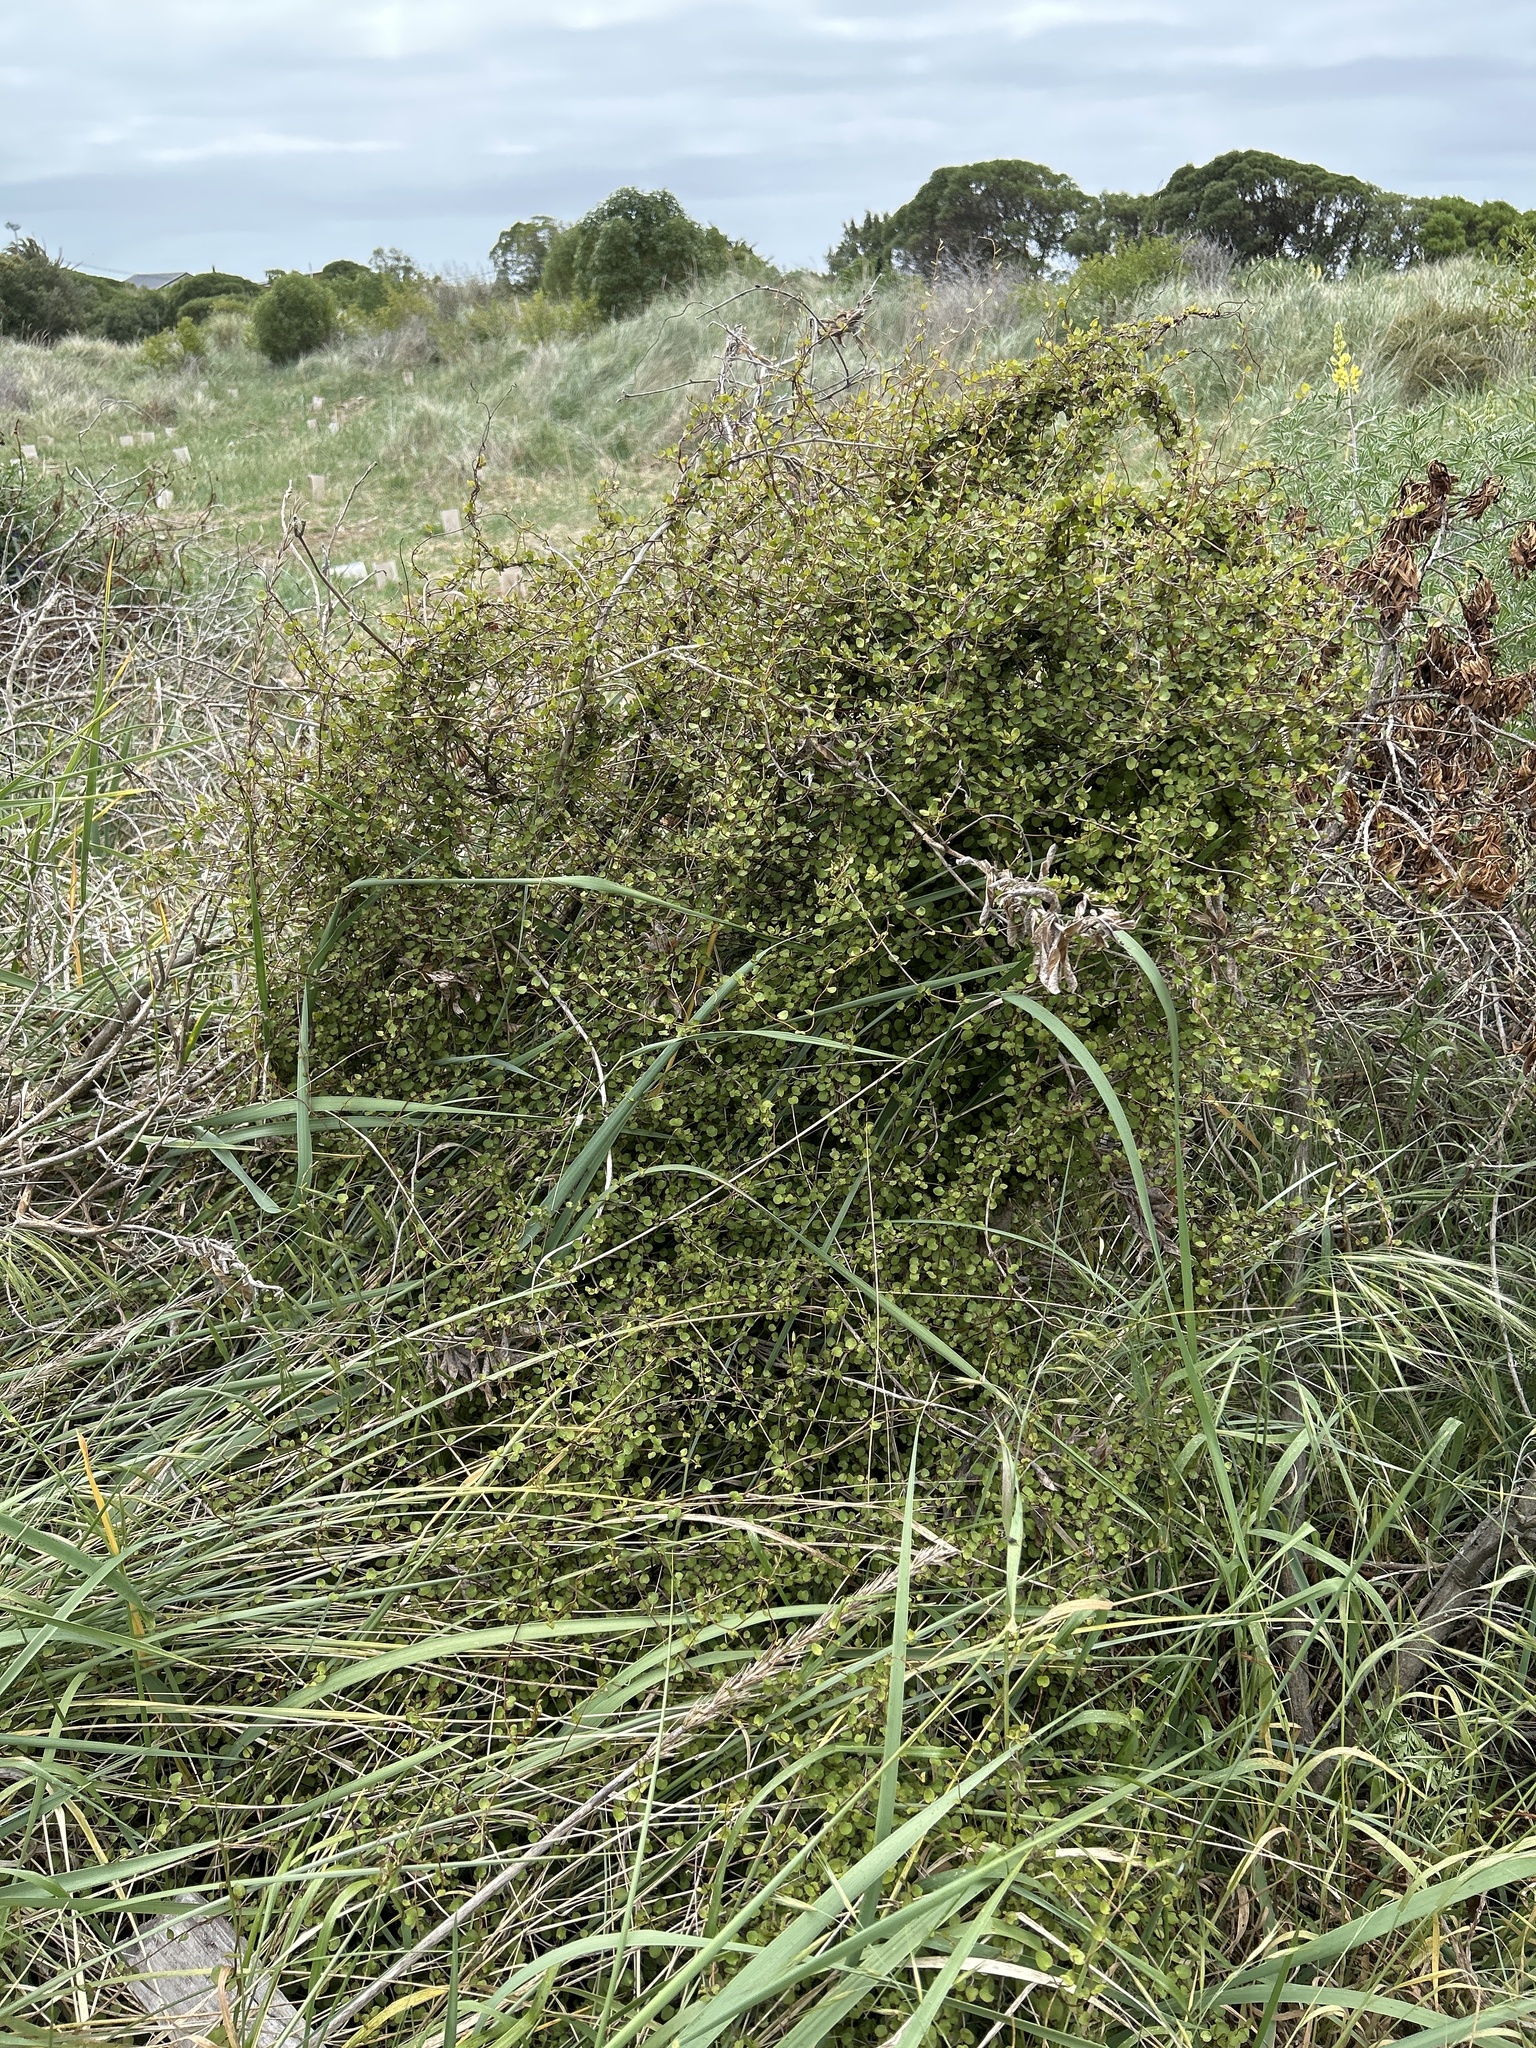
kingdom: Plantae
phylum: Tracheophyta
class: Magnoliopsida
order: Caryophyllales
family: Polygonaceae
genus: Muehlenbeckia
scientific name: Muehlenbeckia complexa
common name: Wireplant
